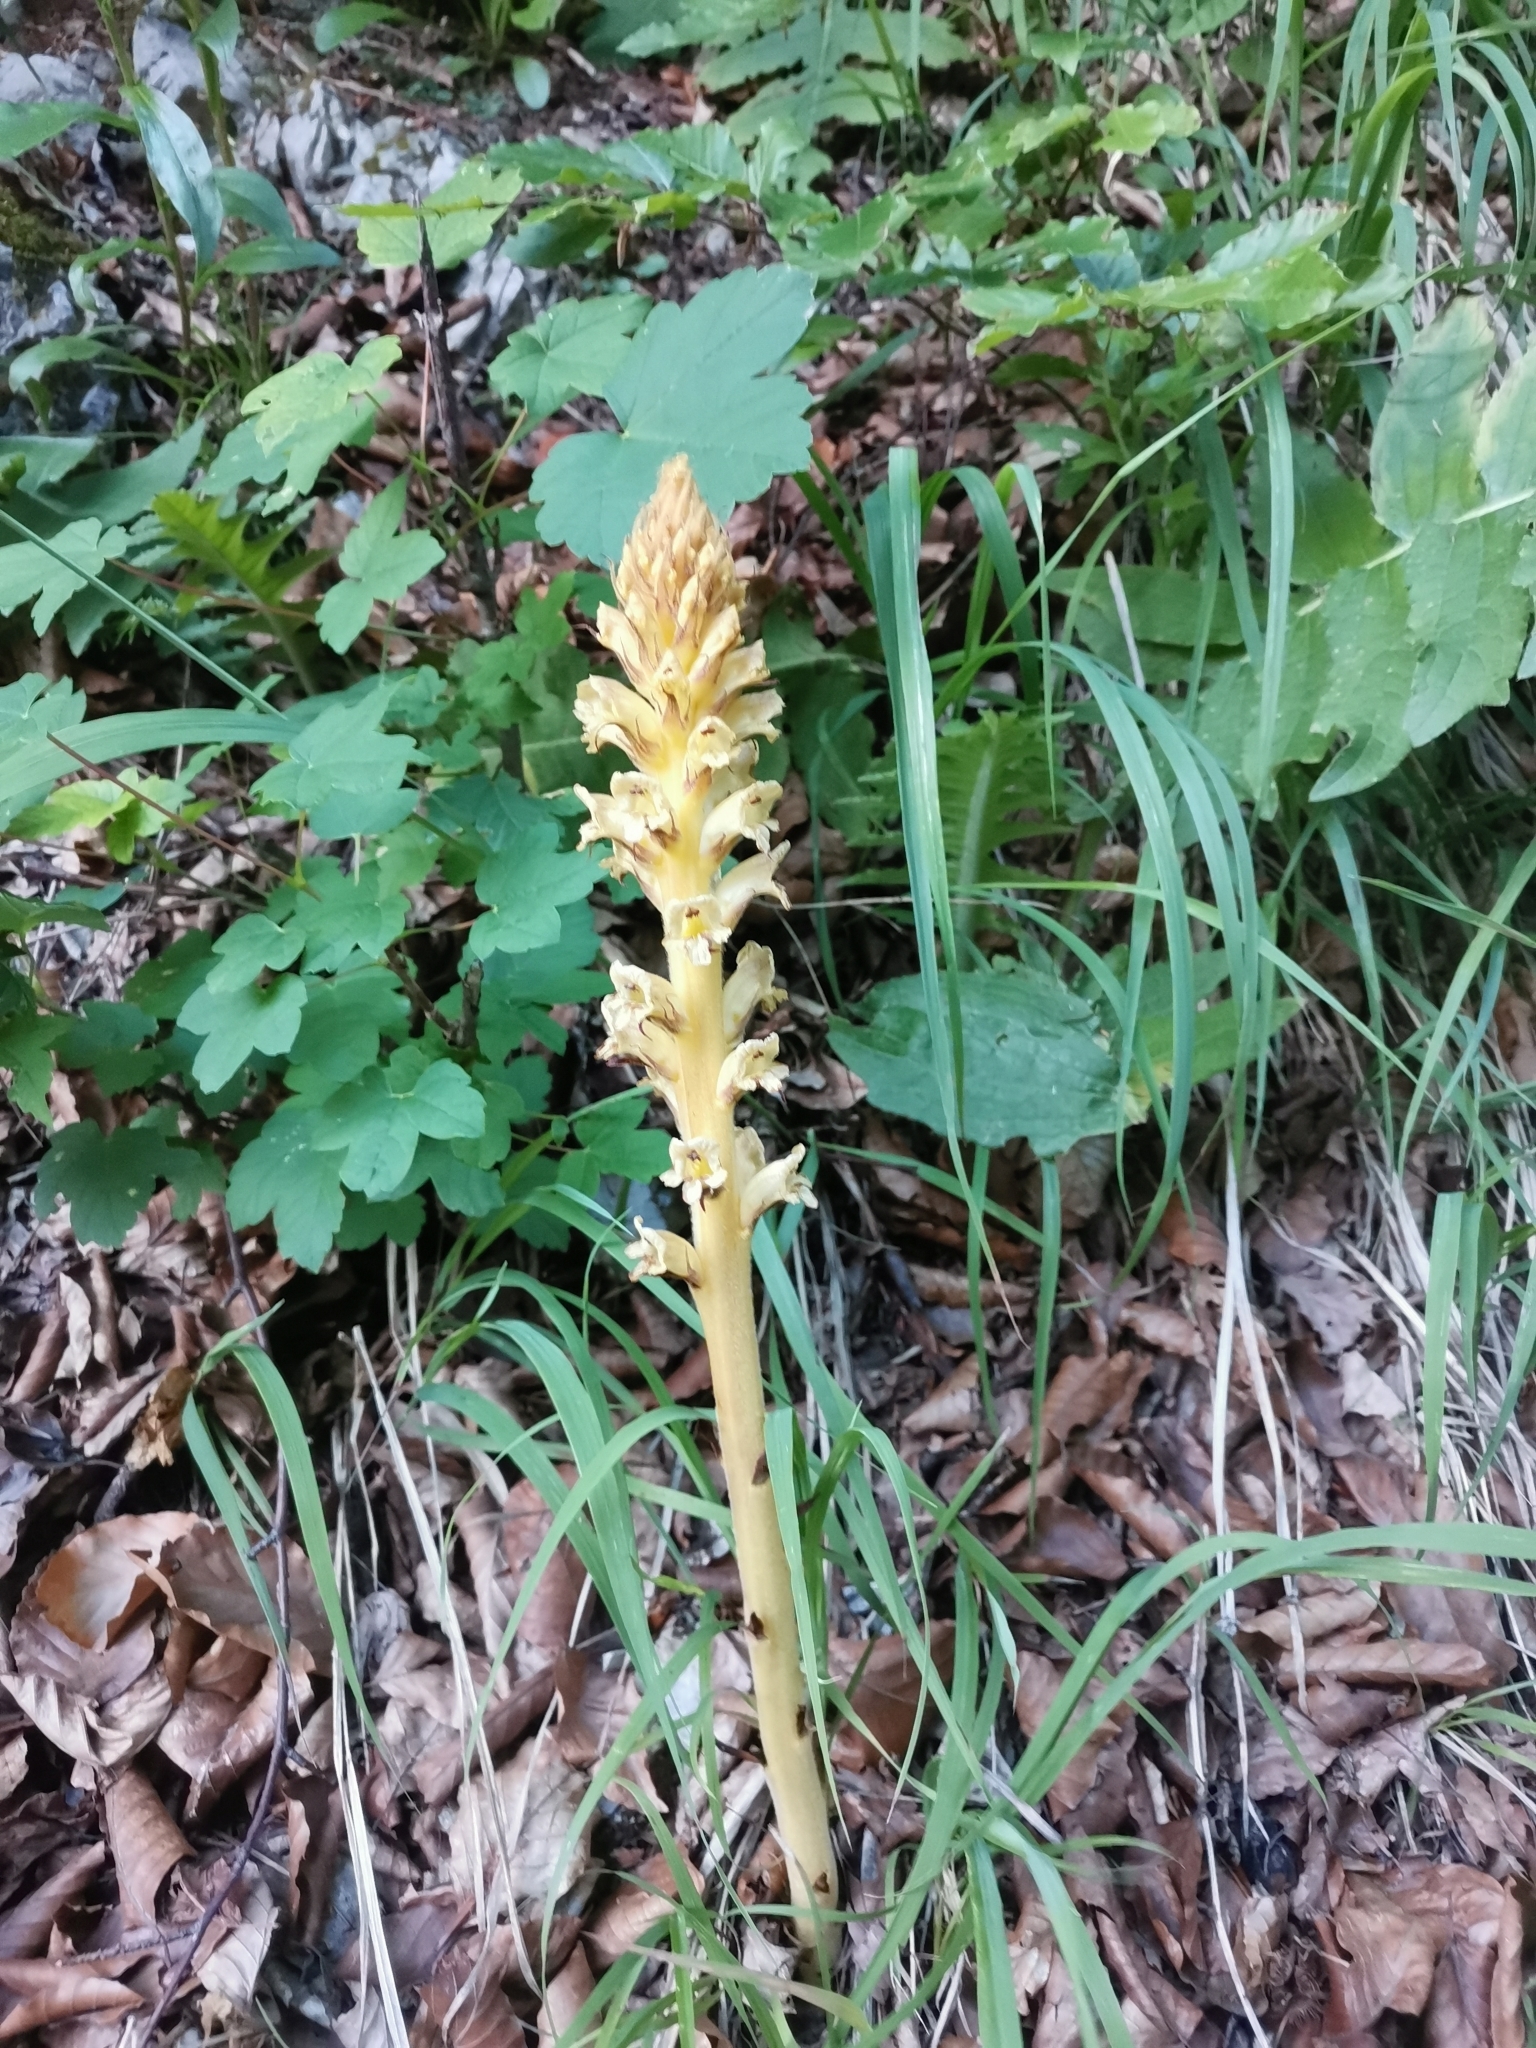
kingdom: Plantae
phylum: Tracheophyta
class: Magnoliopsida
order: Lamiales
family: Orobanchaceae
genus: Orobanche
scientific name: Orobanche reticulata
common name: Thistle broomrape
